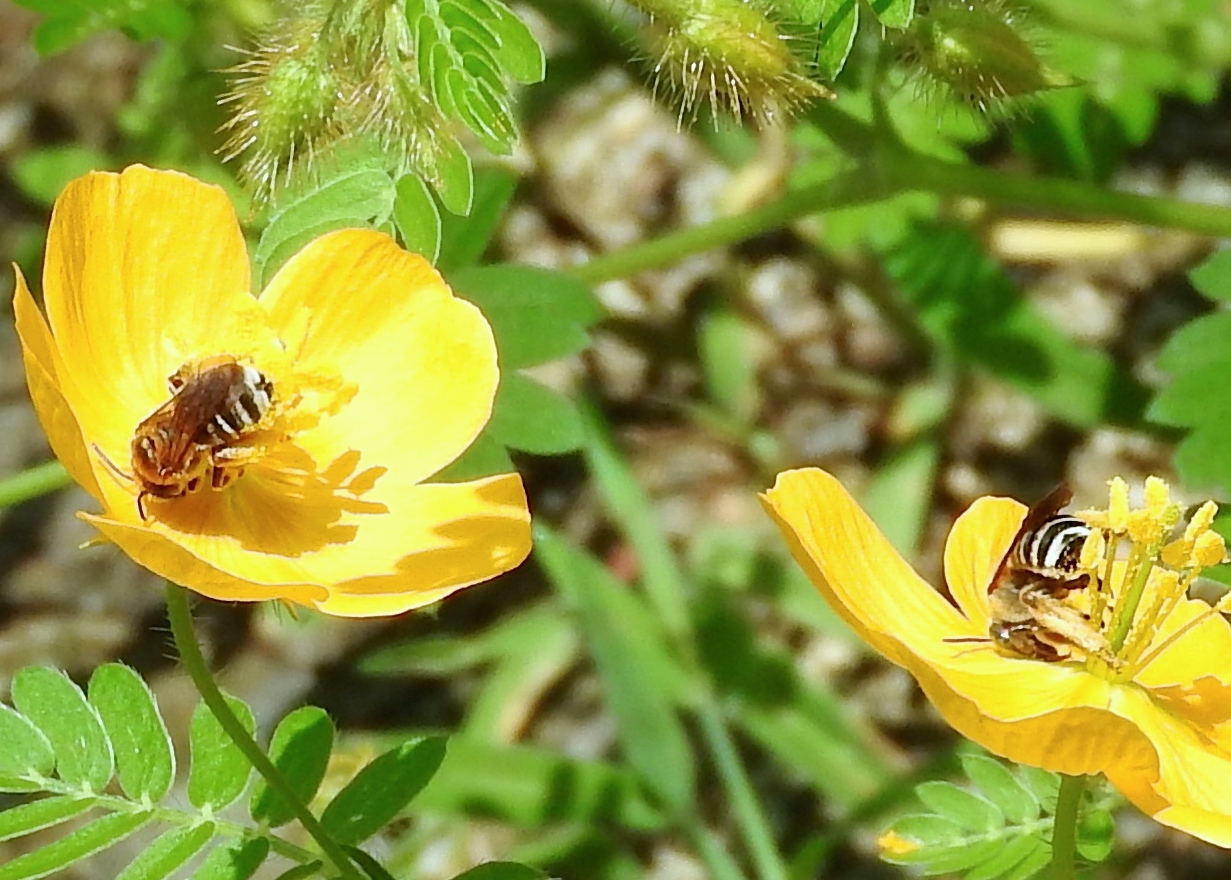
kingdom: Animalia
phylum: Arthropoda
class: Insecta
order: Hymenoptera
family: Apidae
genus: Apidae
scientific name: Apidae
